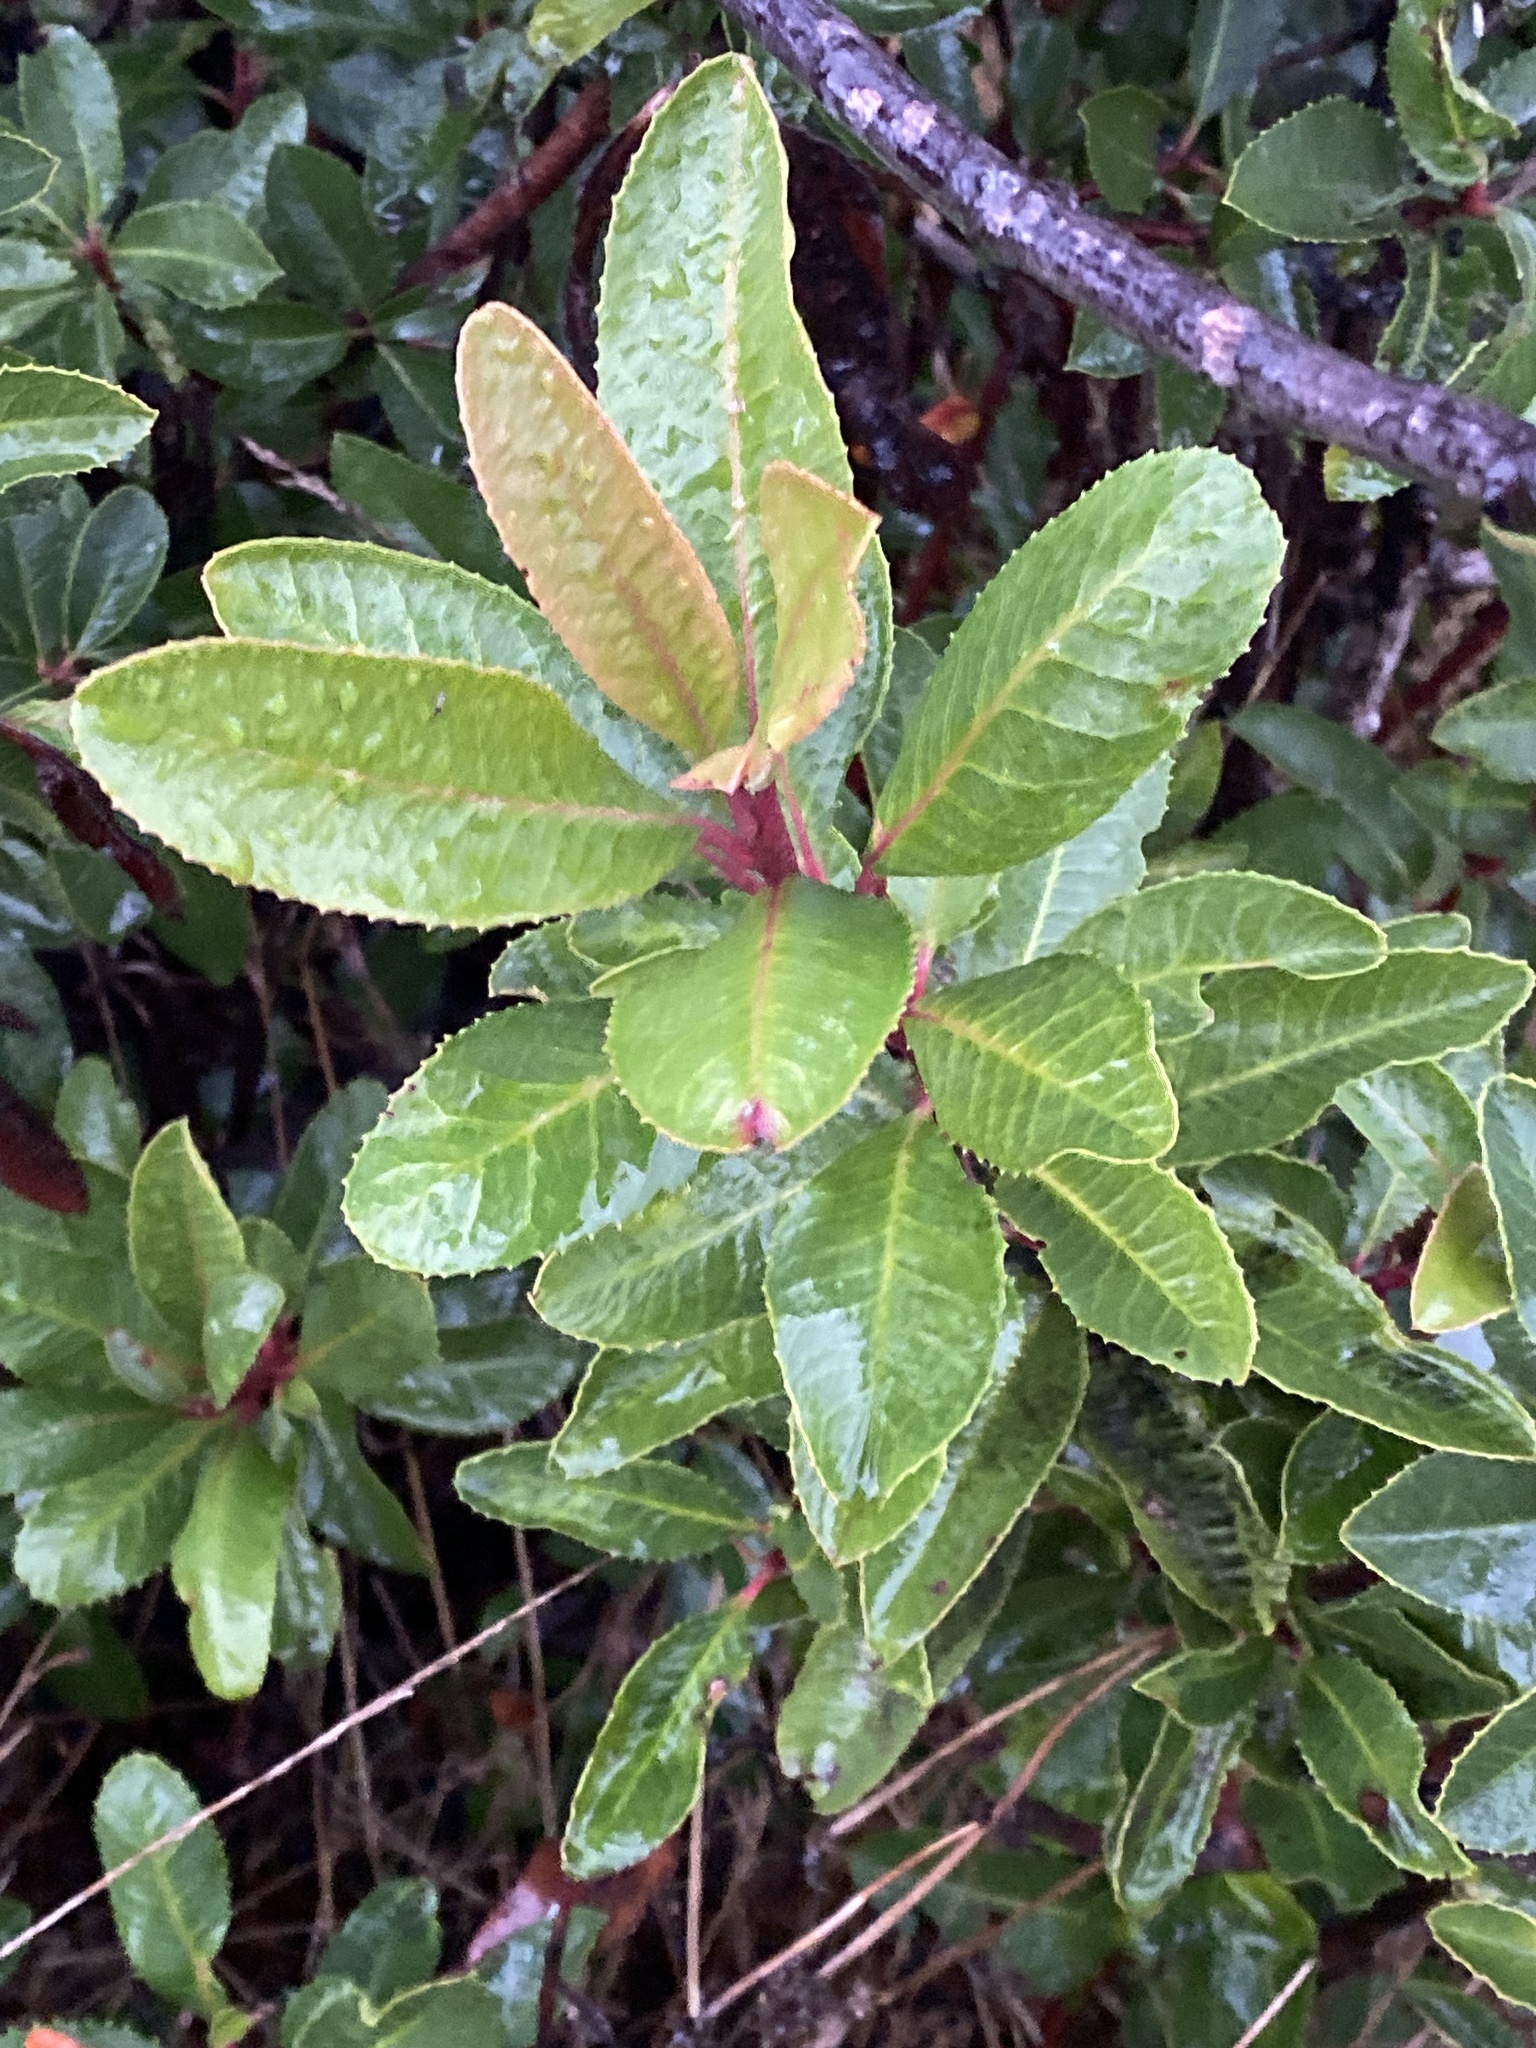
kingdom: Plantae
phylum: Tracheophyta
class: Magnoliopsida
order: Rosales
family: Rosaceae
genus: Heteromeles
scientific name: Heteromeles arbutifolia
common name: California-holly
